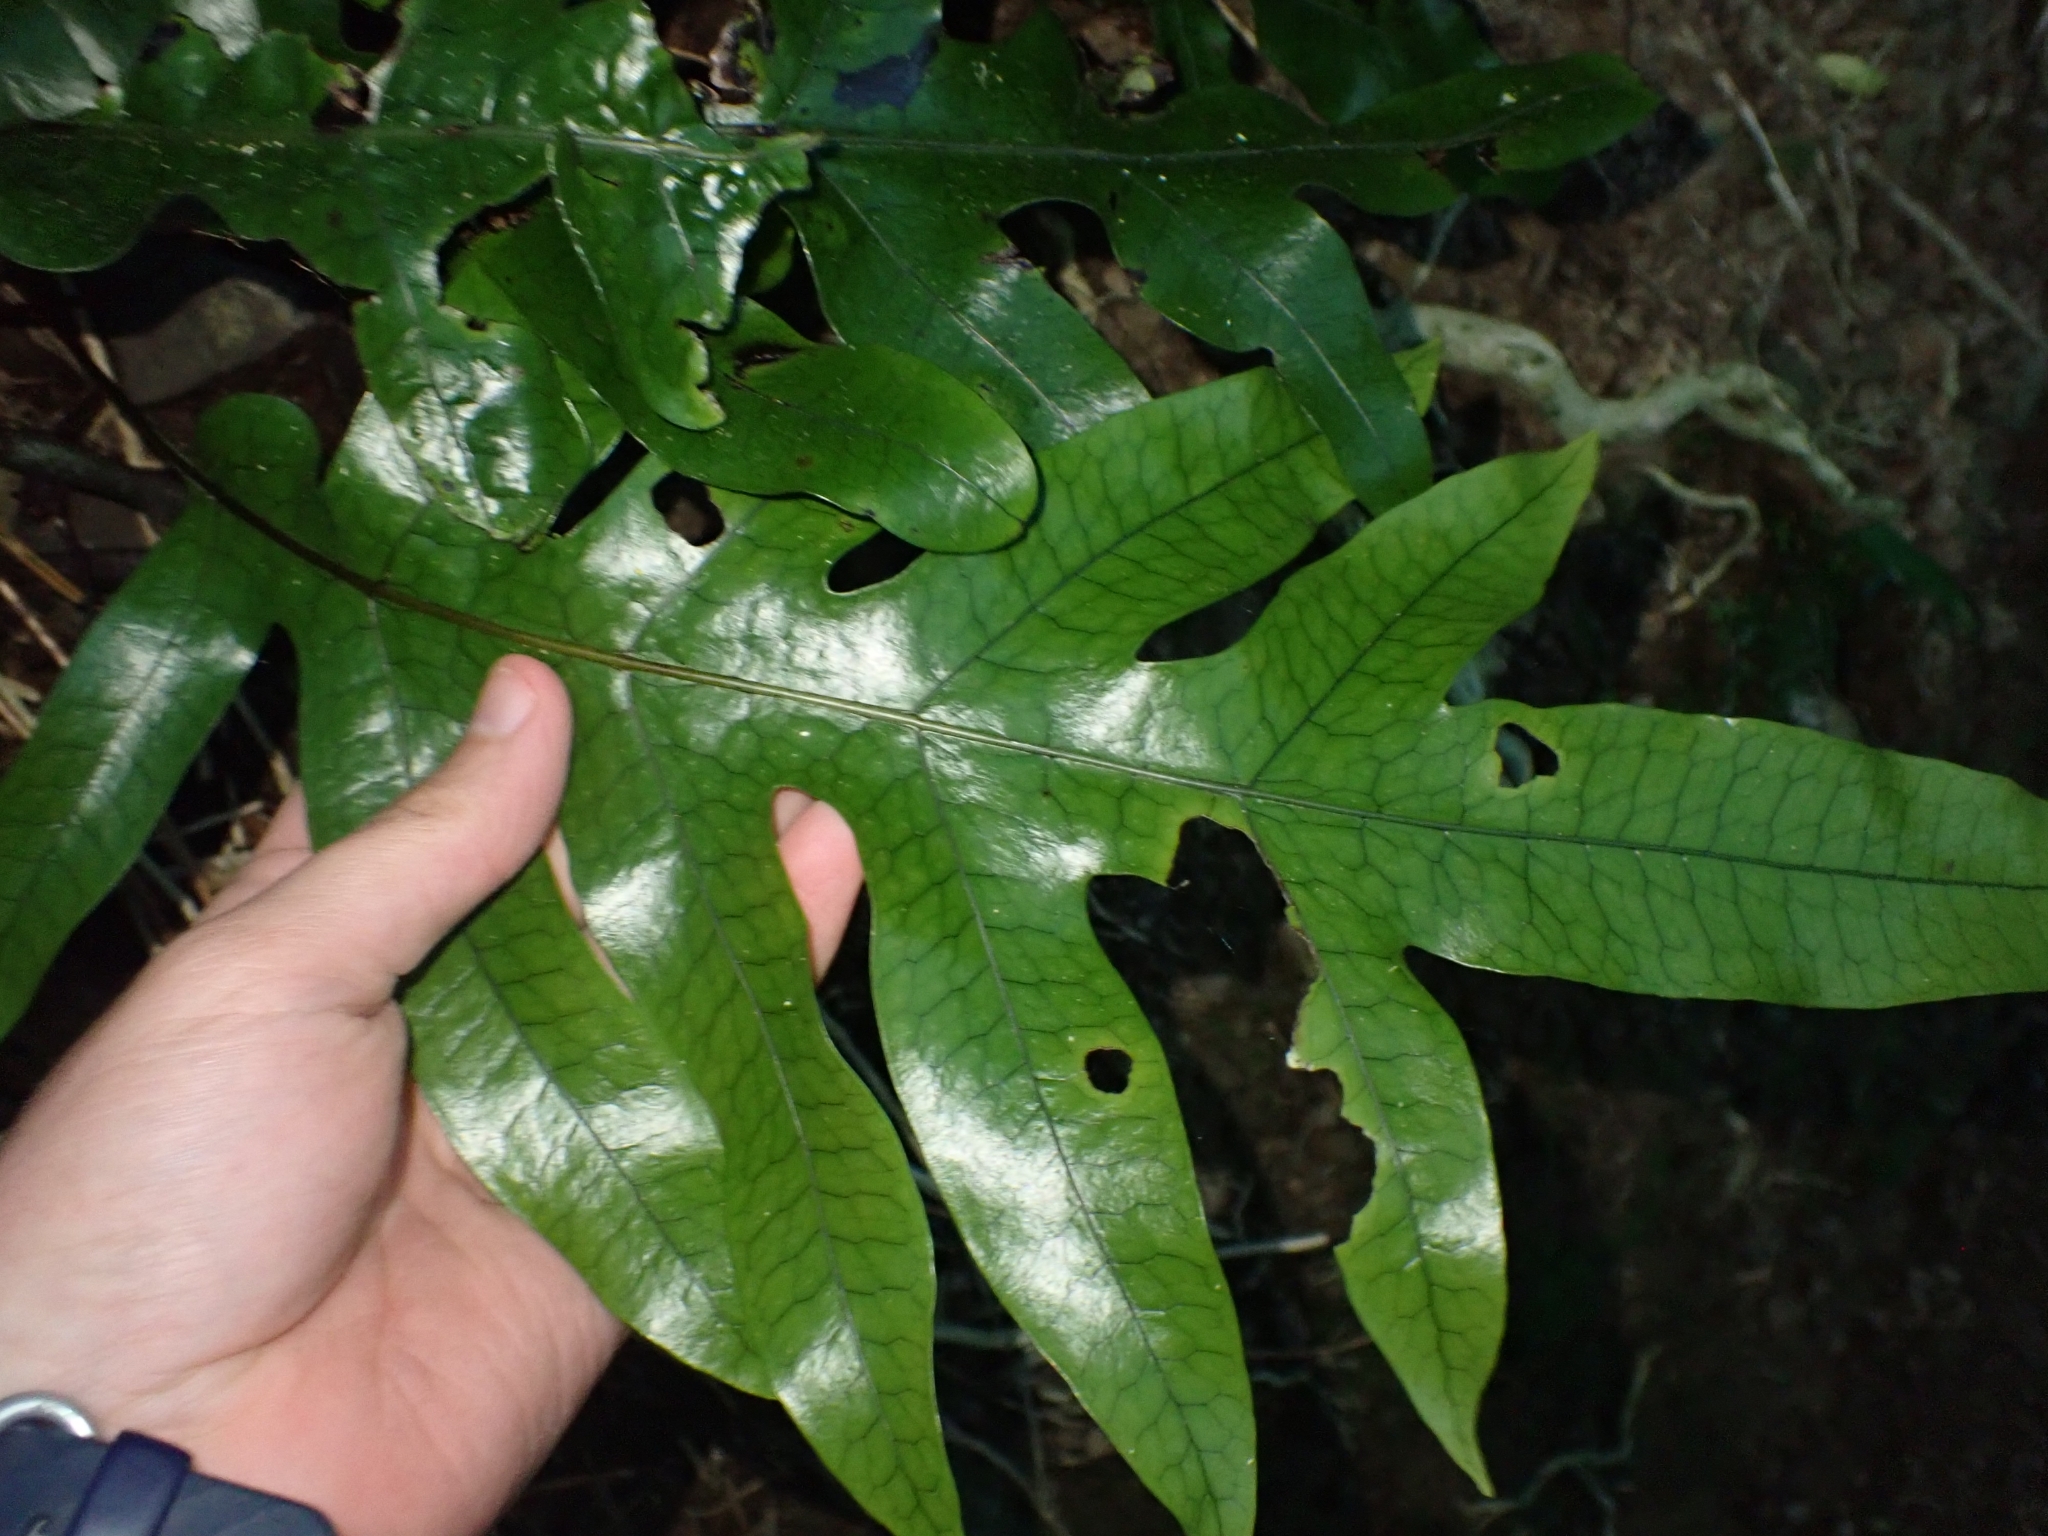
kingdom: Plantae
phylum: Tracheophyta
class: Polypodiopsida
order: Polypodiales
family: Polypodiaceae
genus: Lecanopteris
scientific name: Lecanopteris pustulata
